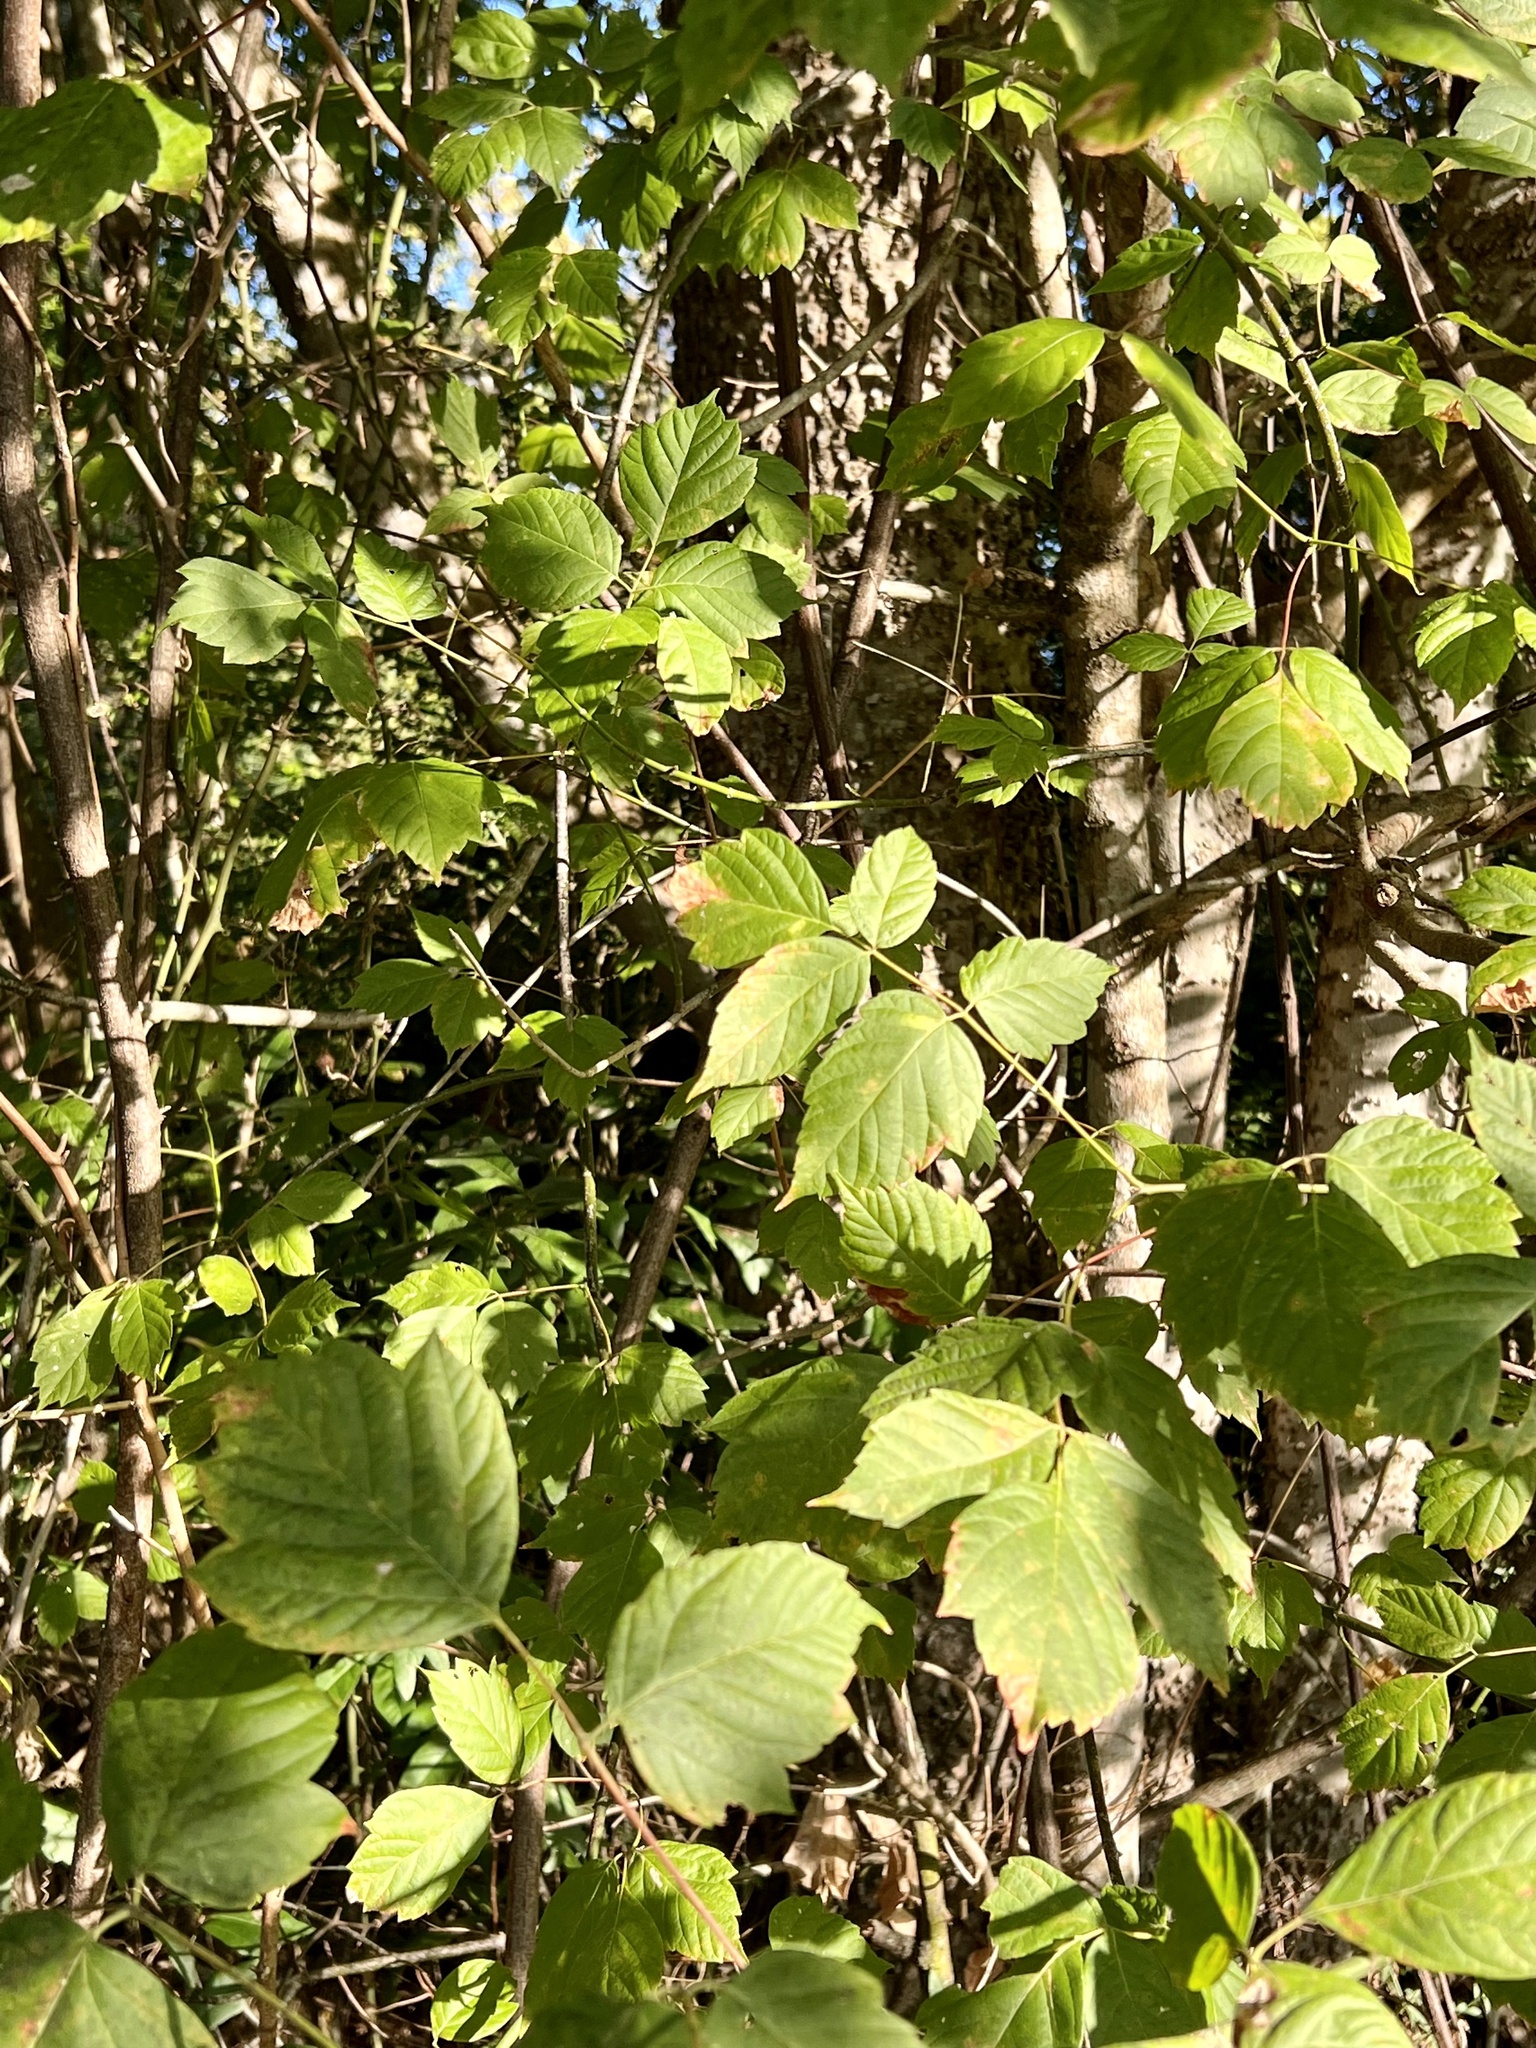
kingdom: Plantae
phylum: Tracheophyta
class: Magnoliopsida
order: Sapindales
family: Sapindaceae
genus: Acer
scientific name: Acer negundo
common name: Ashleaf maple
